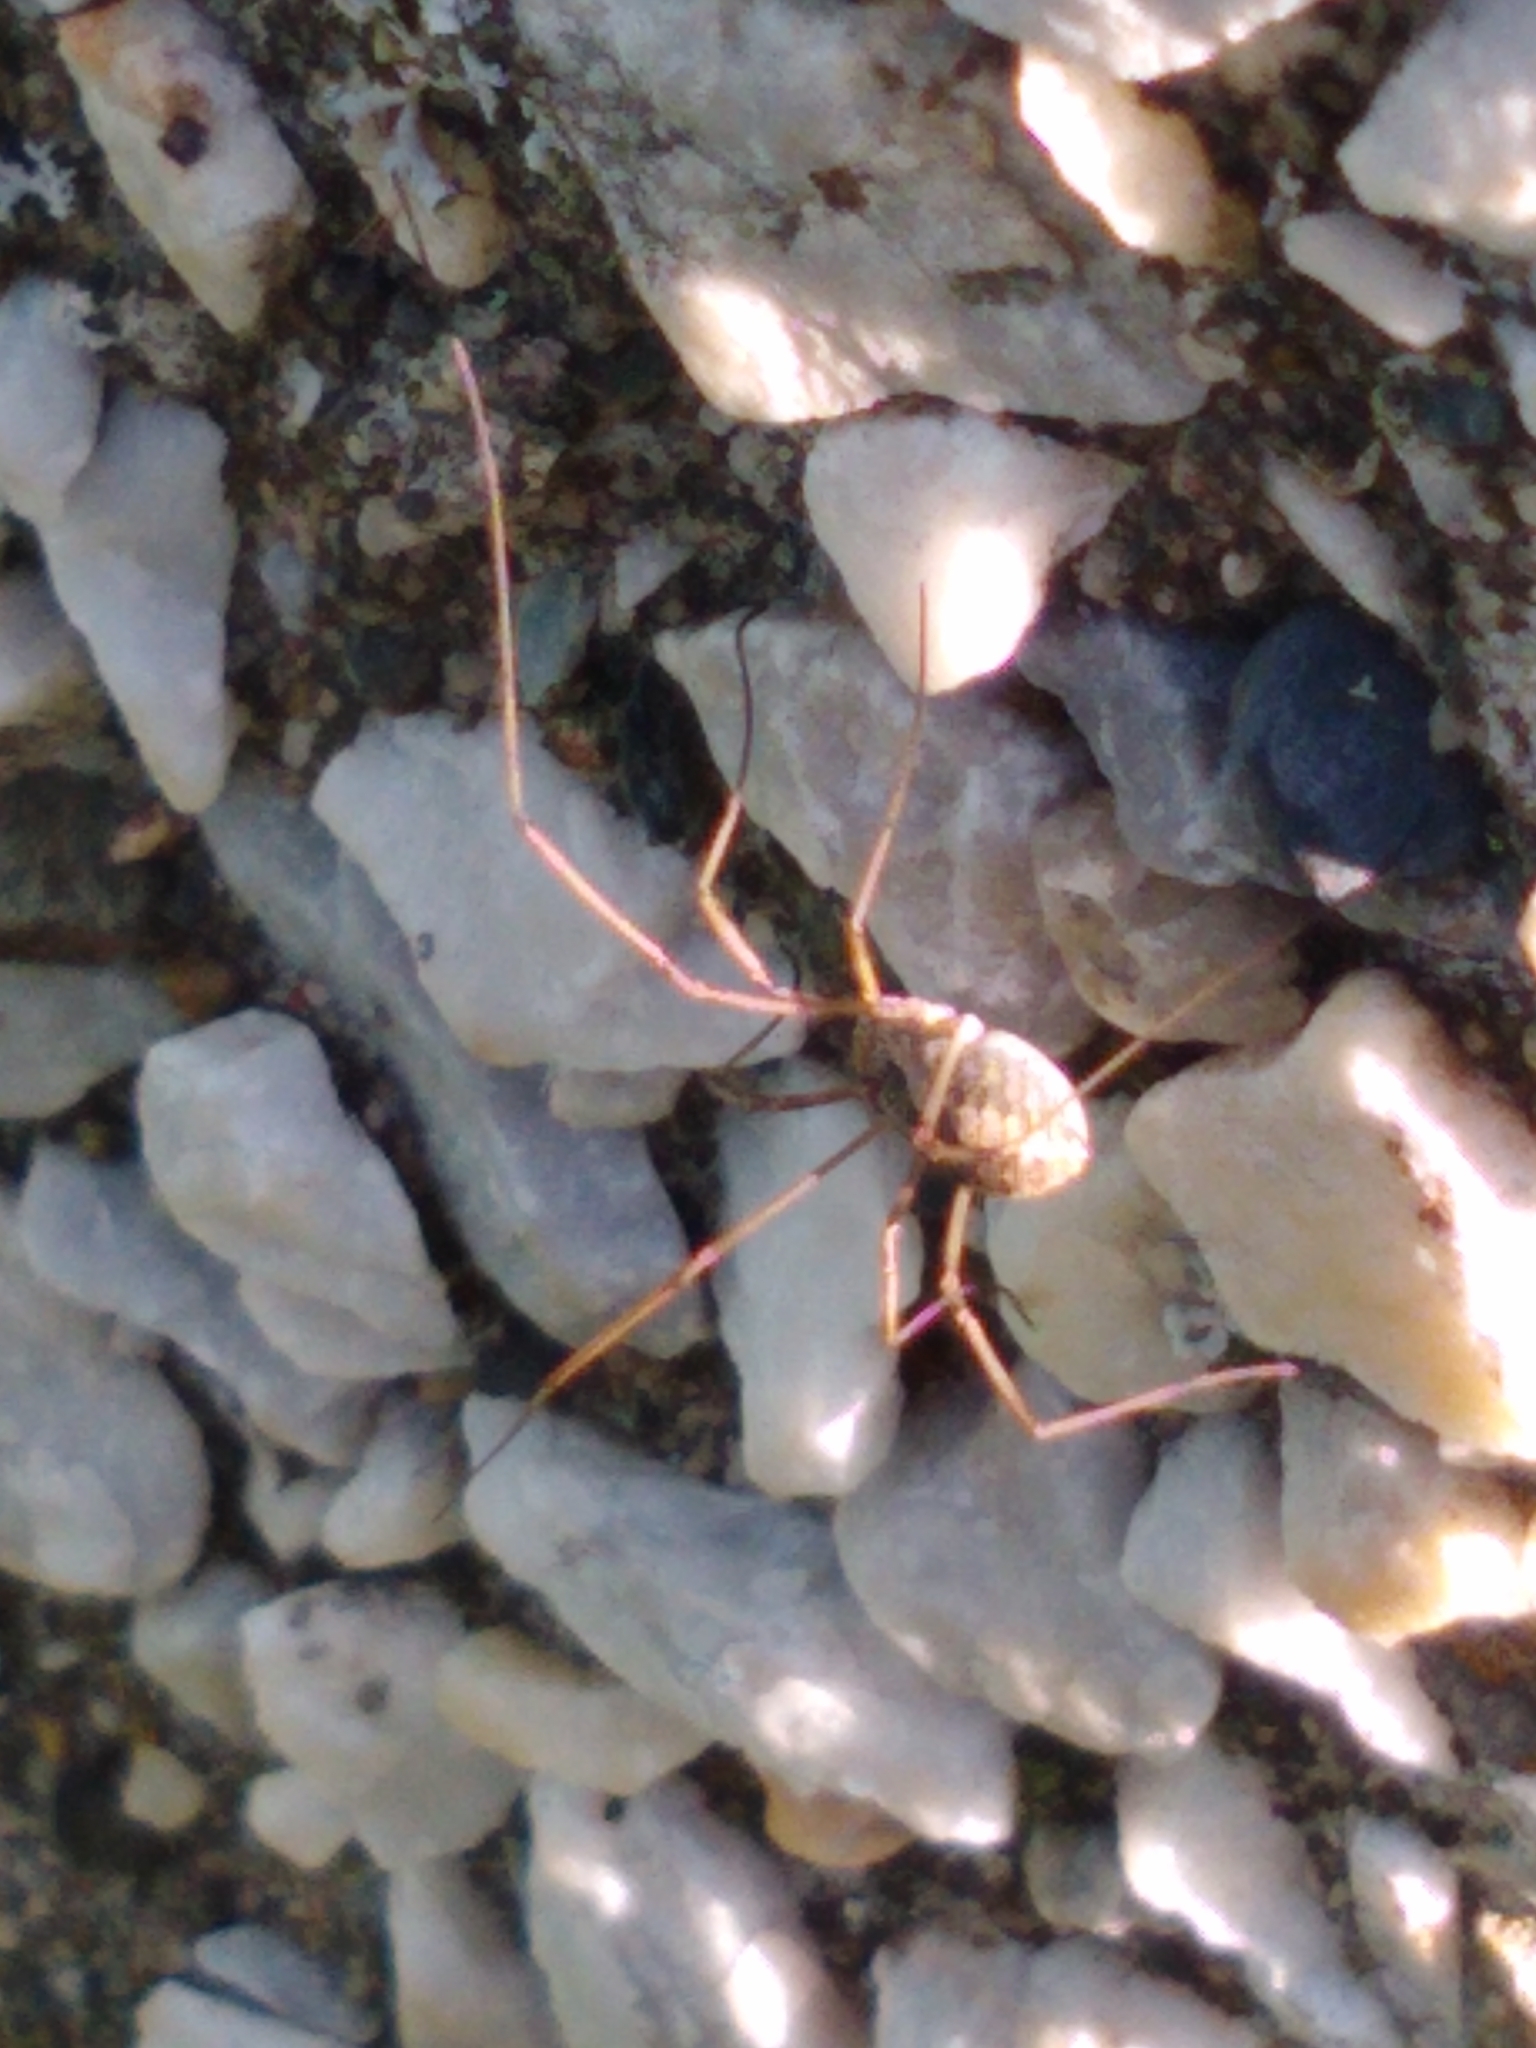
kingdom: Animalia
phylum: Arthropoda
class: Arachnida
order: Opiliones
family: Phalangiidae
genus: Phalangium
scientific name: Phalangium opilio
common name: Daddy longleg
